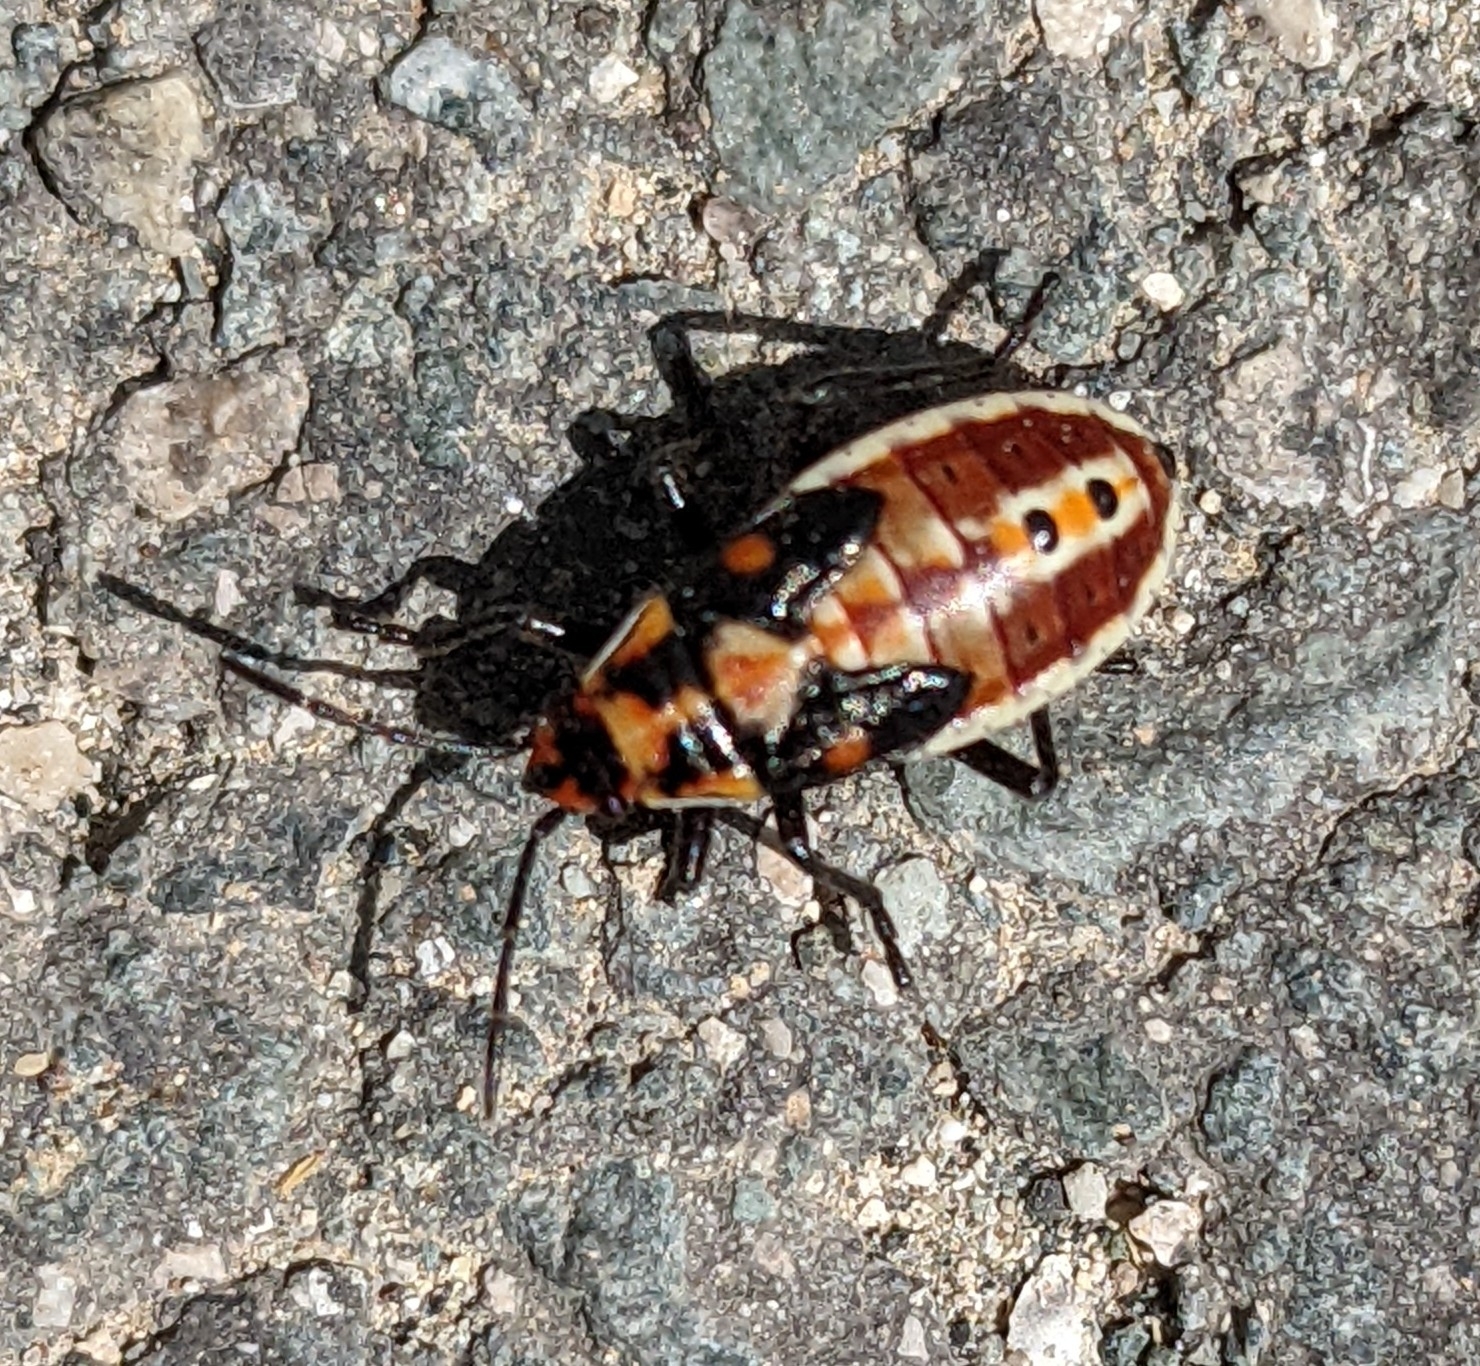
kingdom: Animalia
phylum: Arthropoda
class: Insecta
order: Hemiptera
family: Lygaeidae
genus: Spilostethus
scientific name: Spilostethus pandurus
